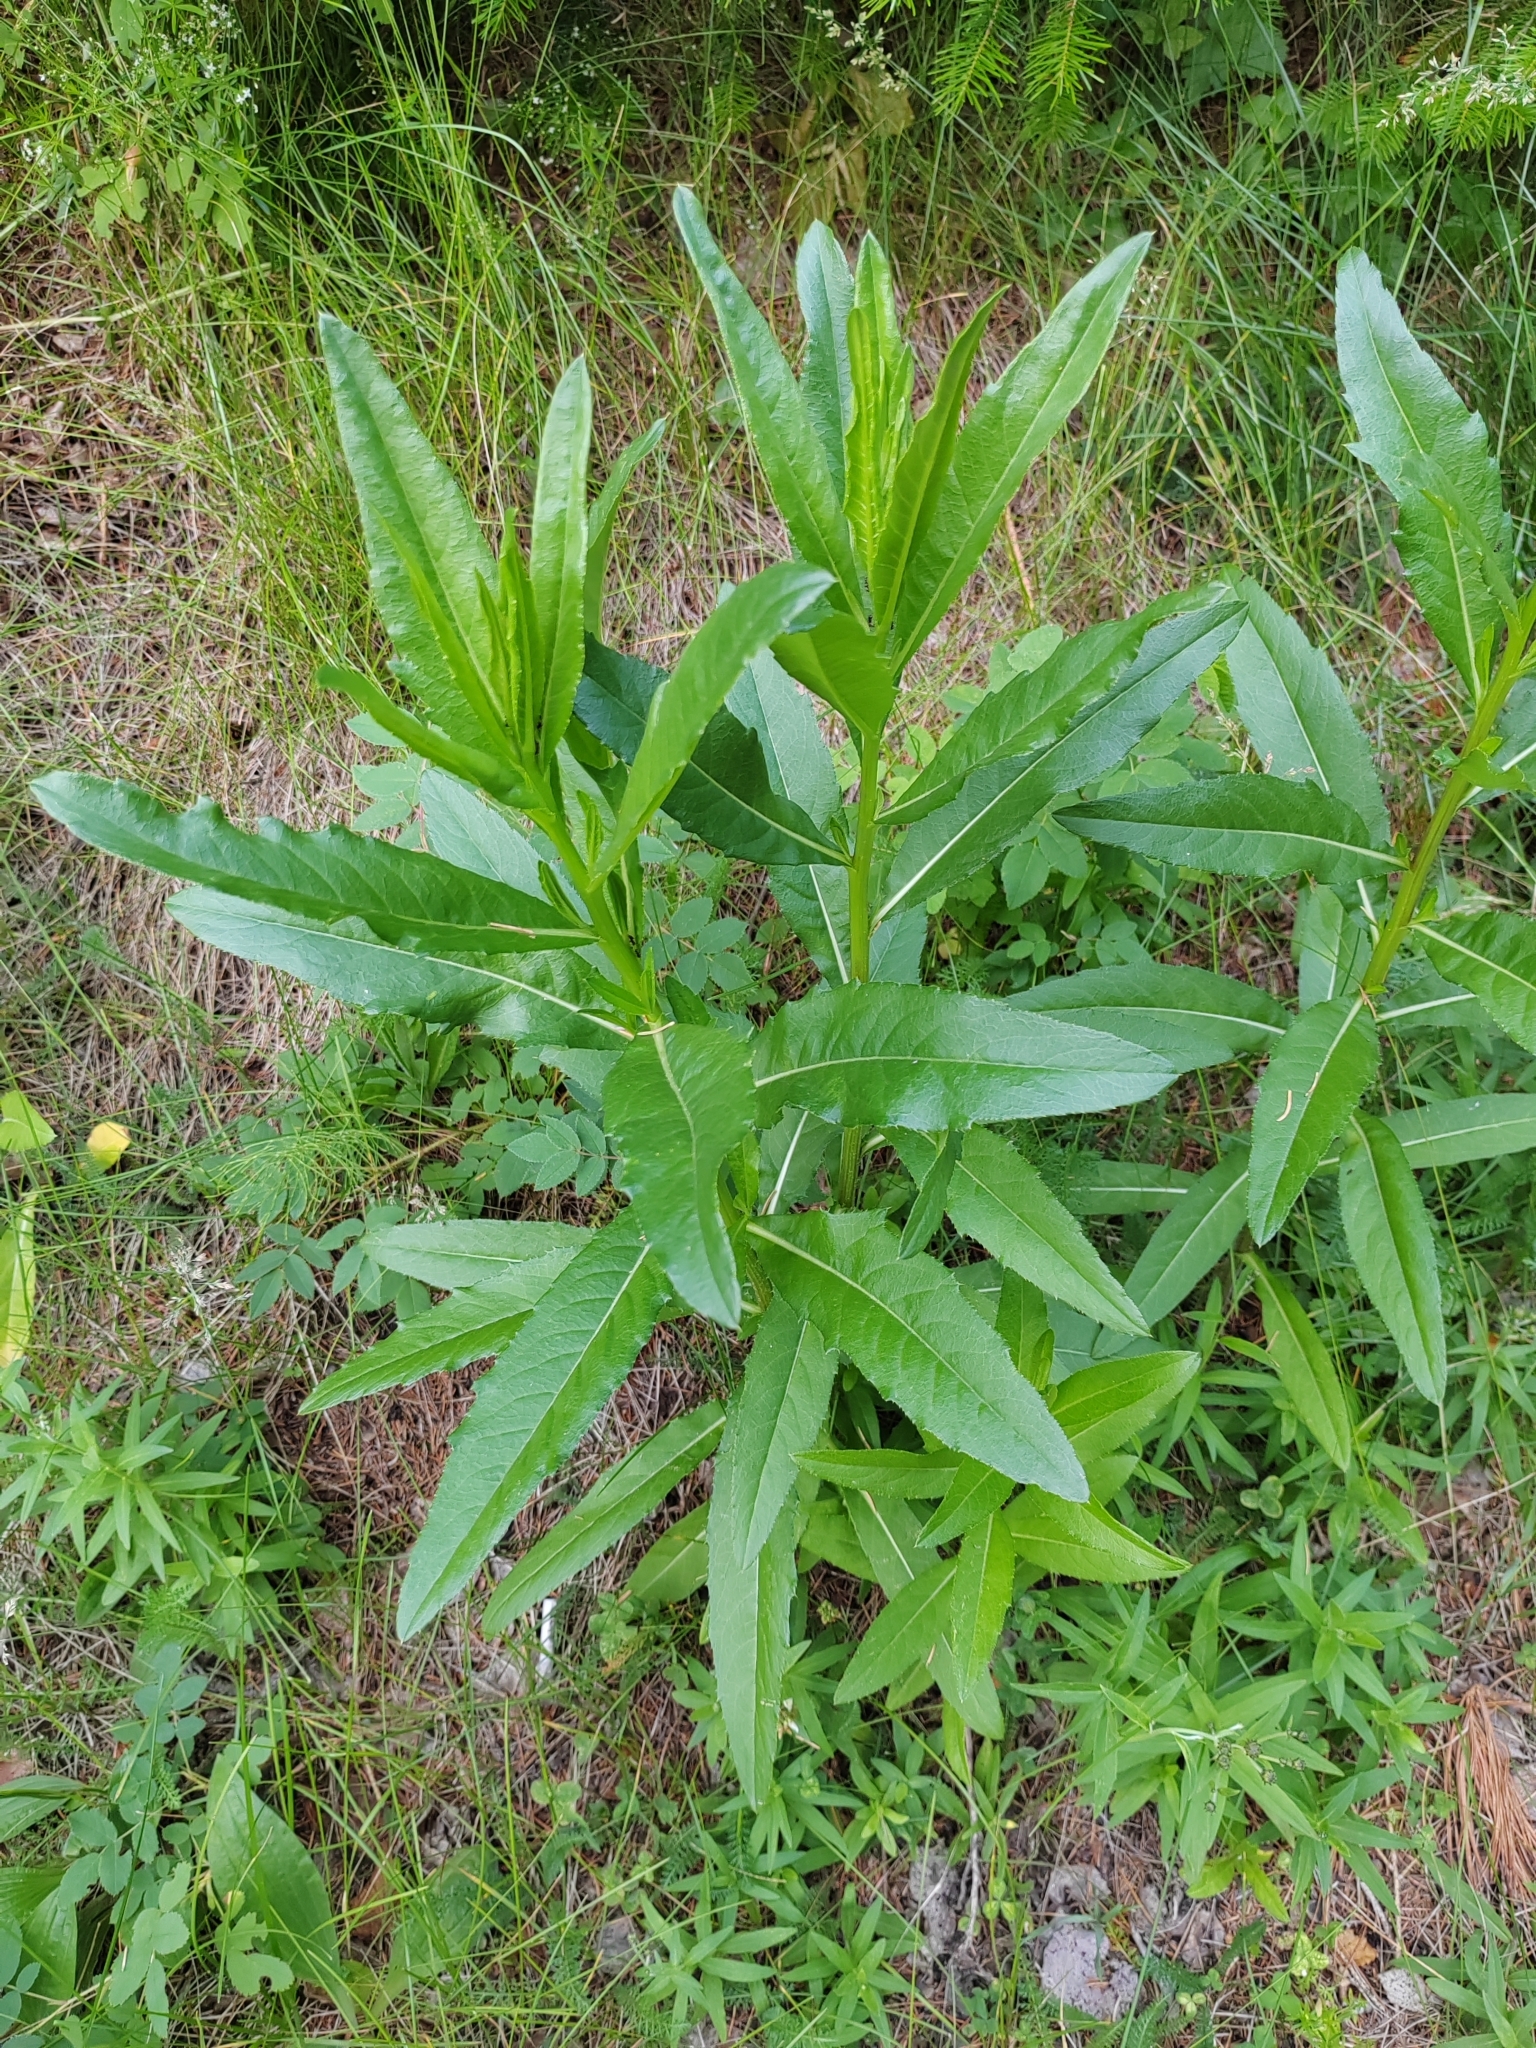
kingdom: Plantae
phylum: Tracheophyta
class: Magnoliopsida
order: Asterales
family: Asteraceae
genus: Cirsium
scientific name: Cirsium arvense
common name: Creeping thistle
